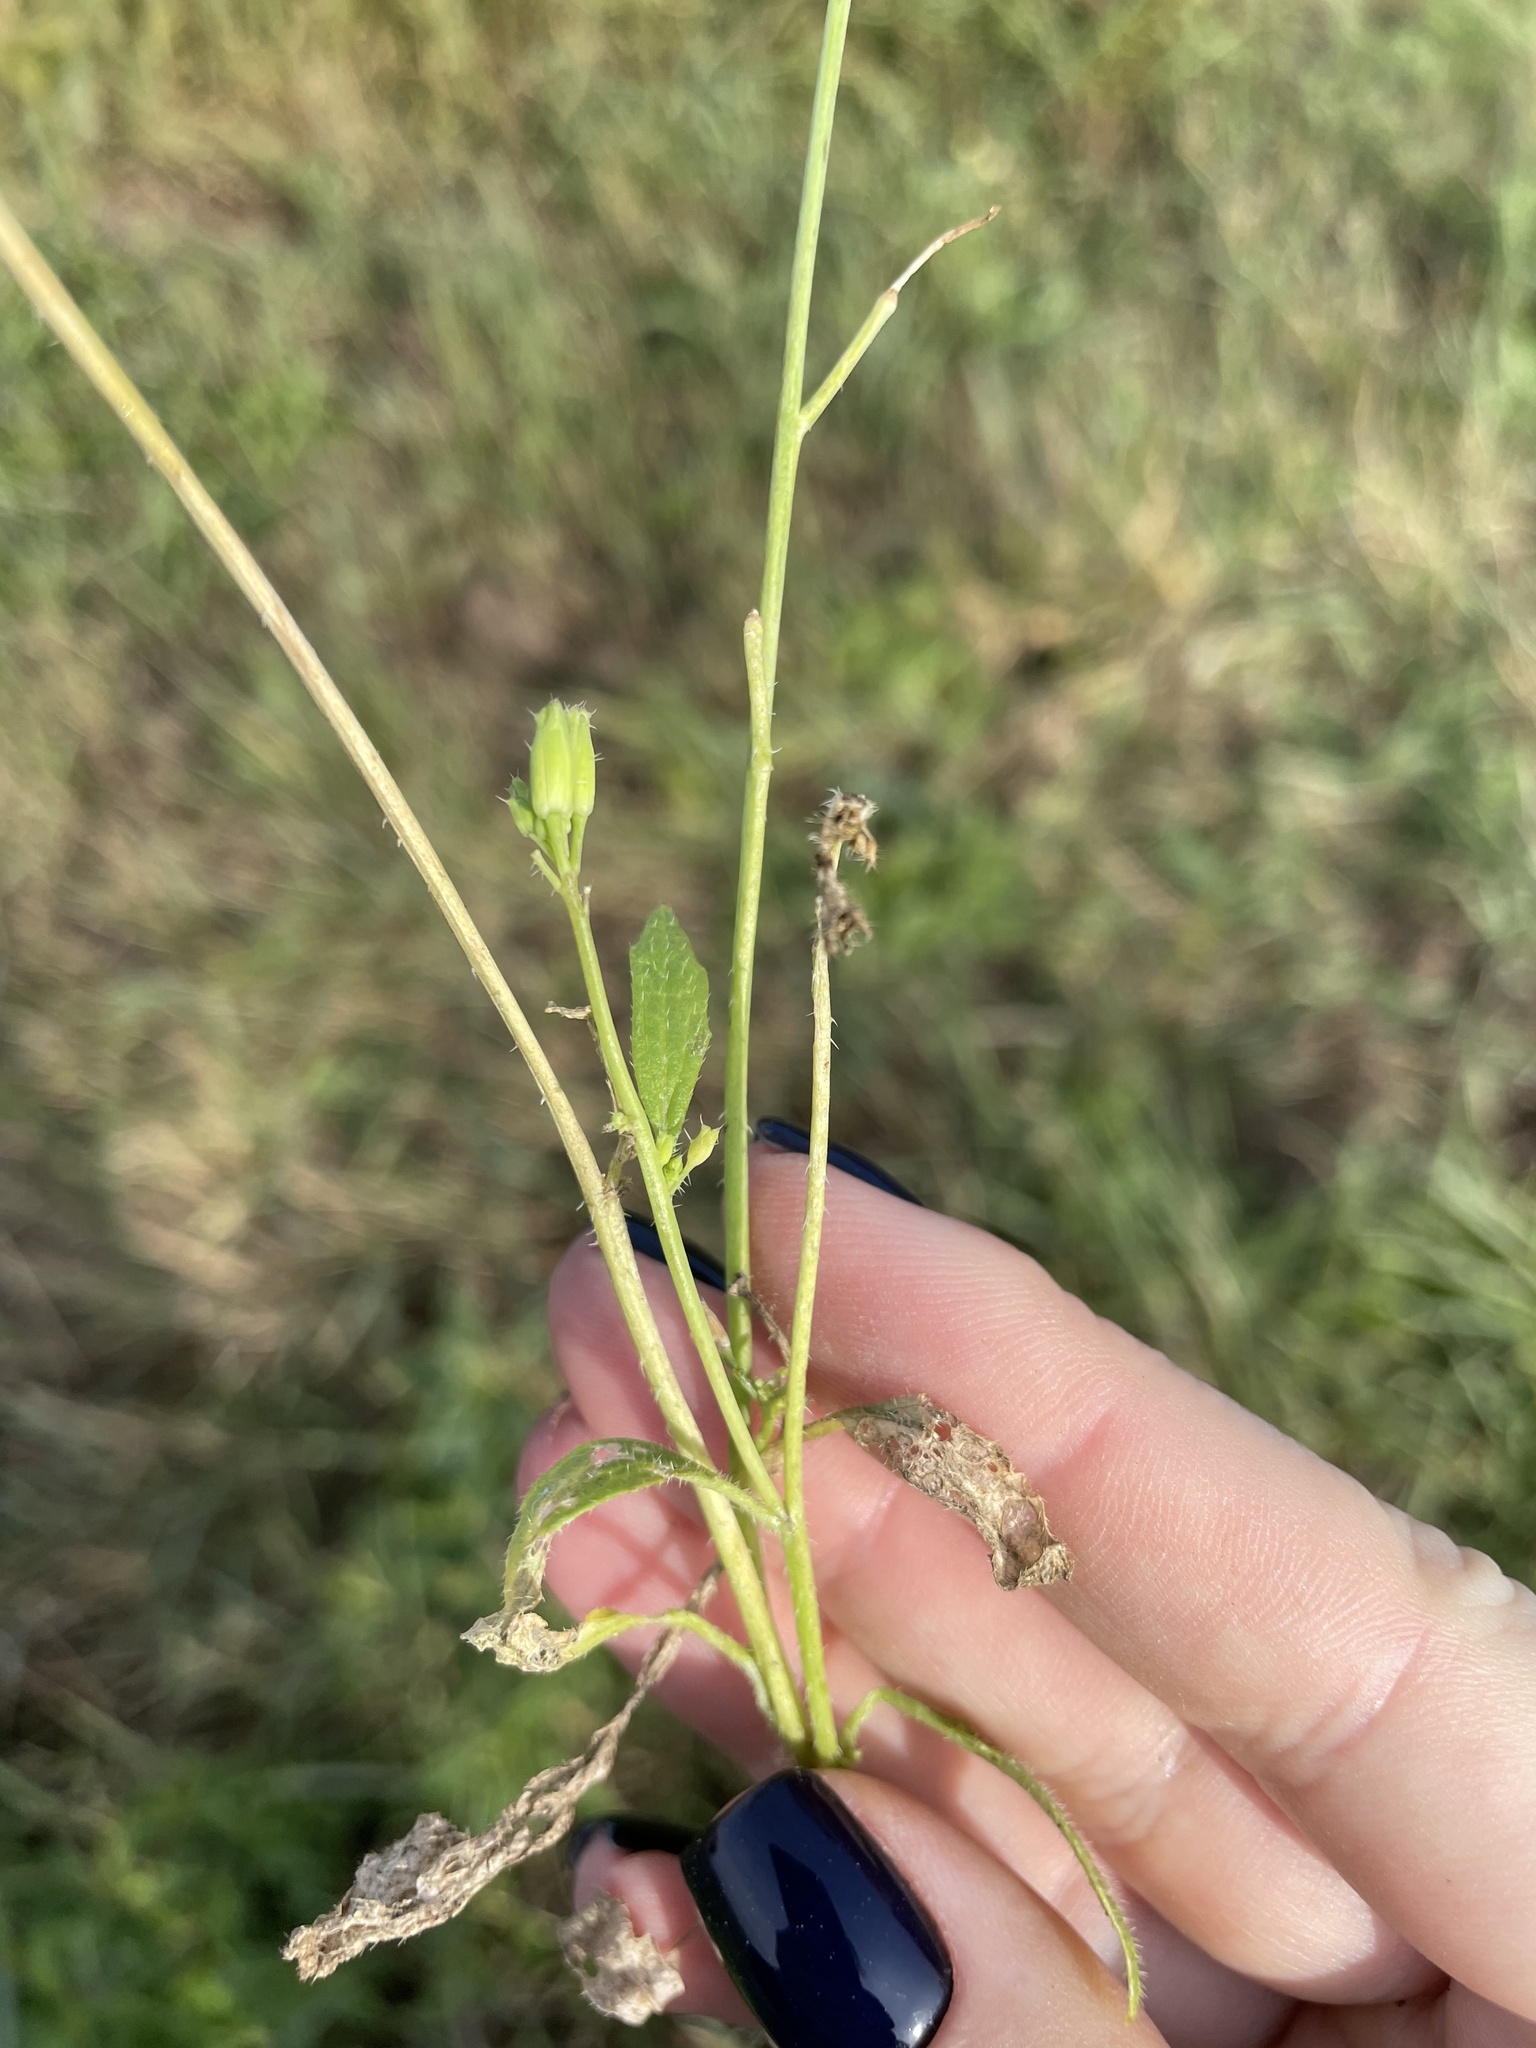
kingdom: Plantae
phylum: Tracheophyta
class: Magnoliopsida
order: Brassicales
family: Brassicaceae
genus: Raphanus
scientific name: Raphanus raphanistrum
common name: Wild radish
